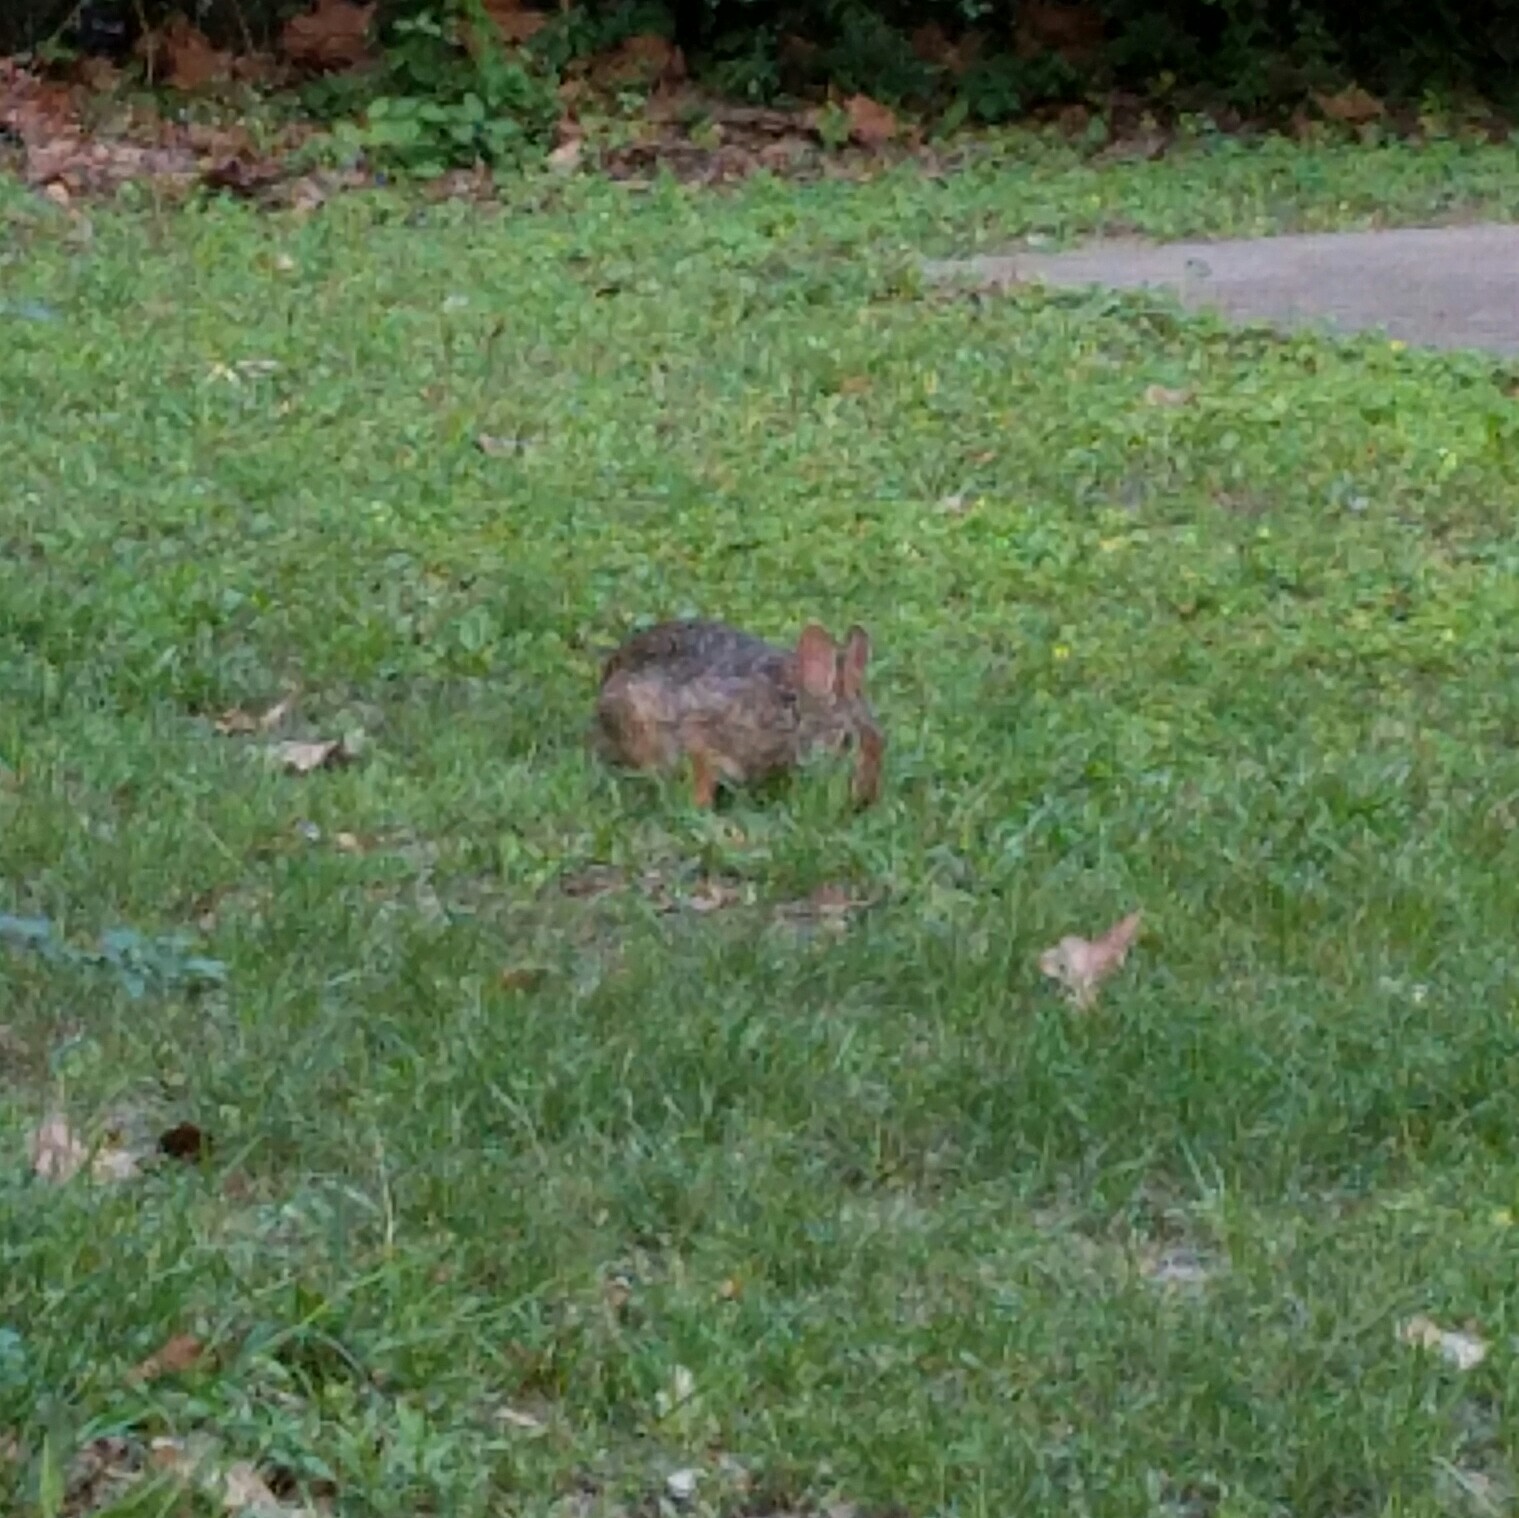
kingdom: Animalia
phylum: Chordata
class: Mammalia
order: Lagomorpha
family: Leporidae
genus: Sylvilagus
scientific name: Sylvilagus floridanus
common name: Eastern cottontail
